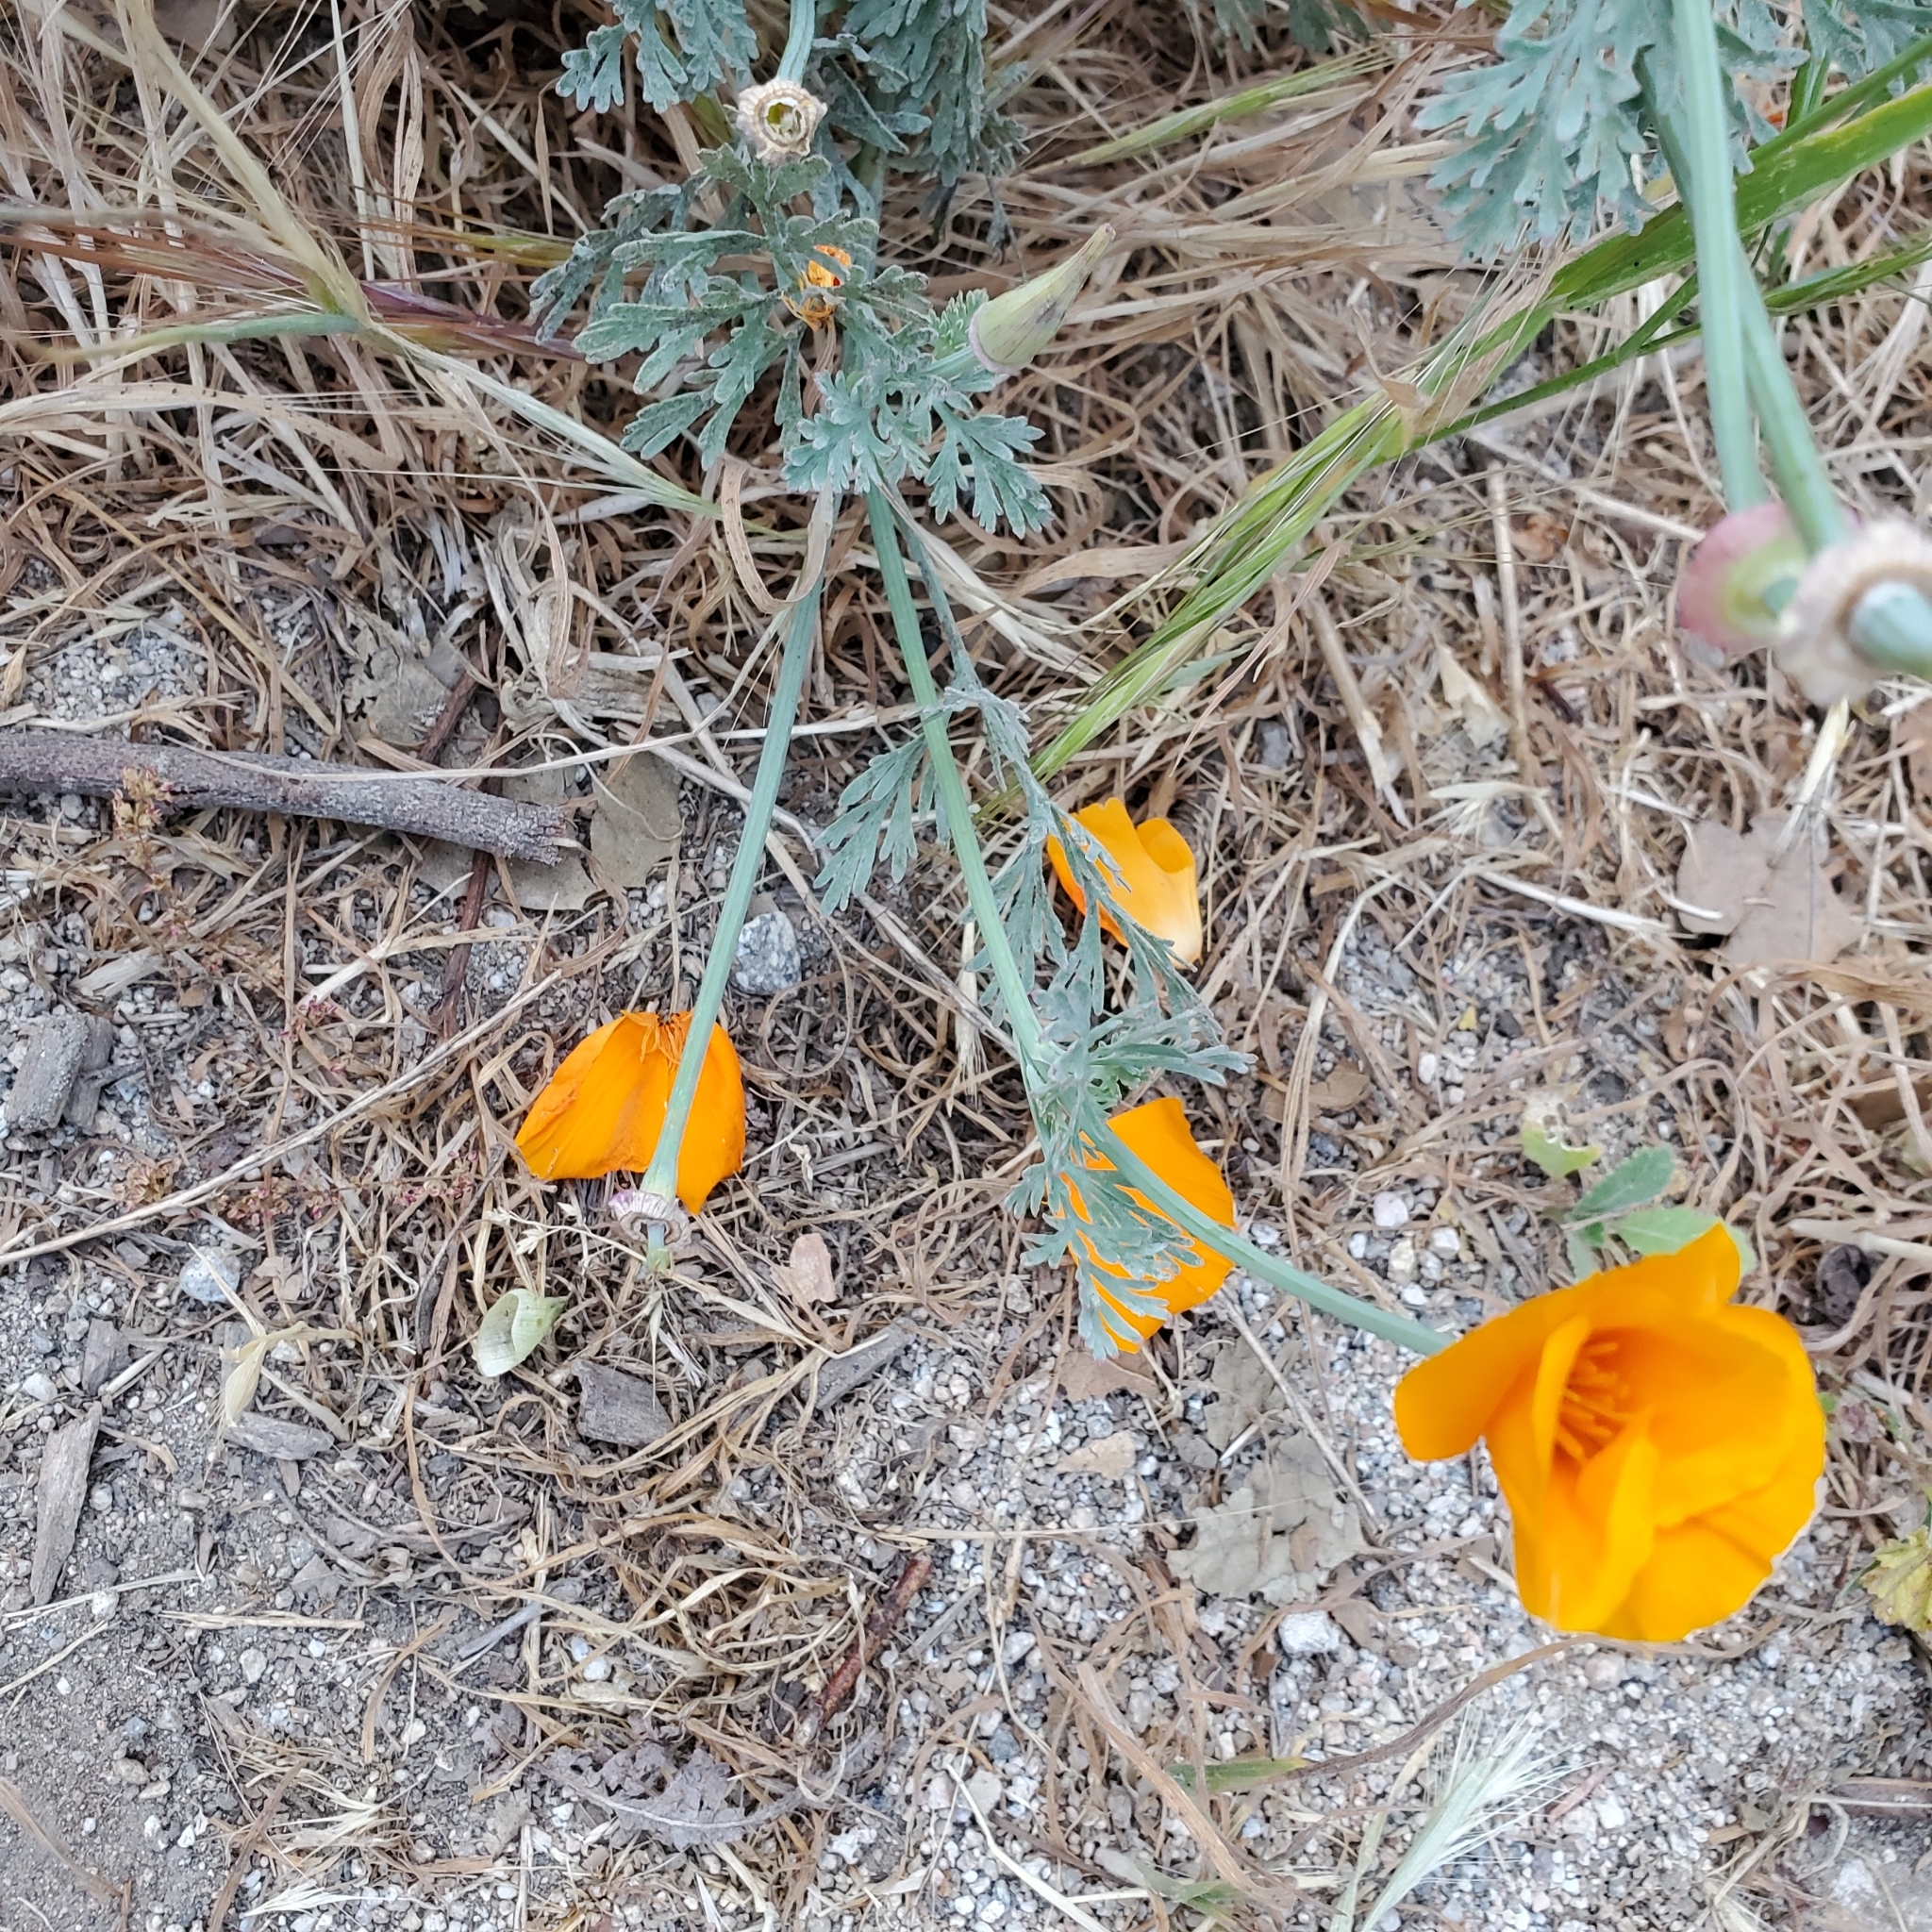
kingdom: Plantae
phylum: Tracheophyta
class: Magnoliopsida
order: Ranunculales
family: Papaveraceae
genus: Eschscholzia
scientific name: Eschscholzia californica
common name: California poppy
